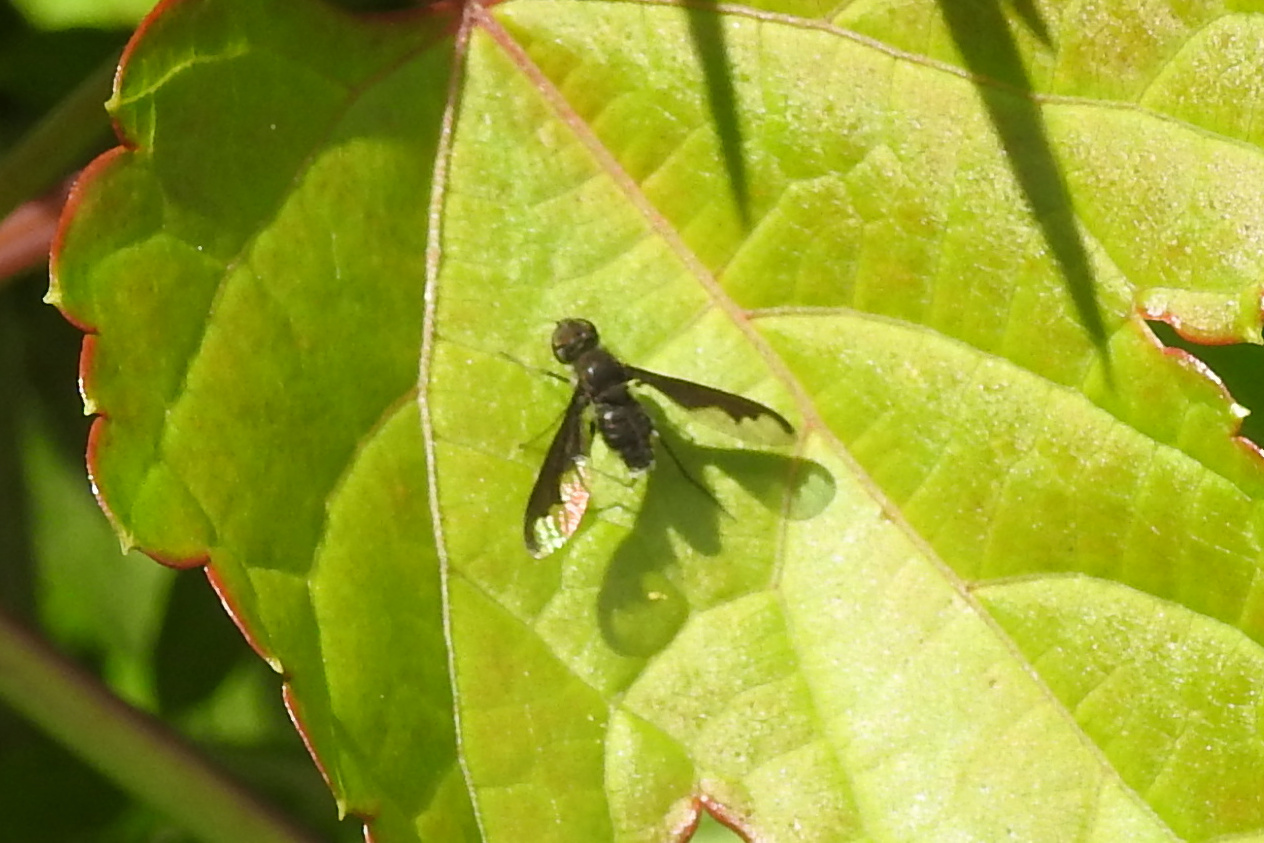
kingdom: Animalia
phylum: Arthropoda
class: Insecta
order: Diptera
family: Bombyliidae
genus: Anthrax
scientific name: Anthrax argyropygus
